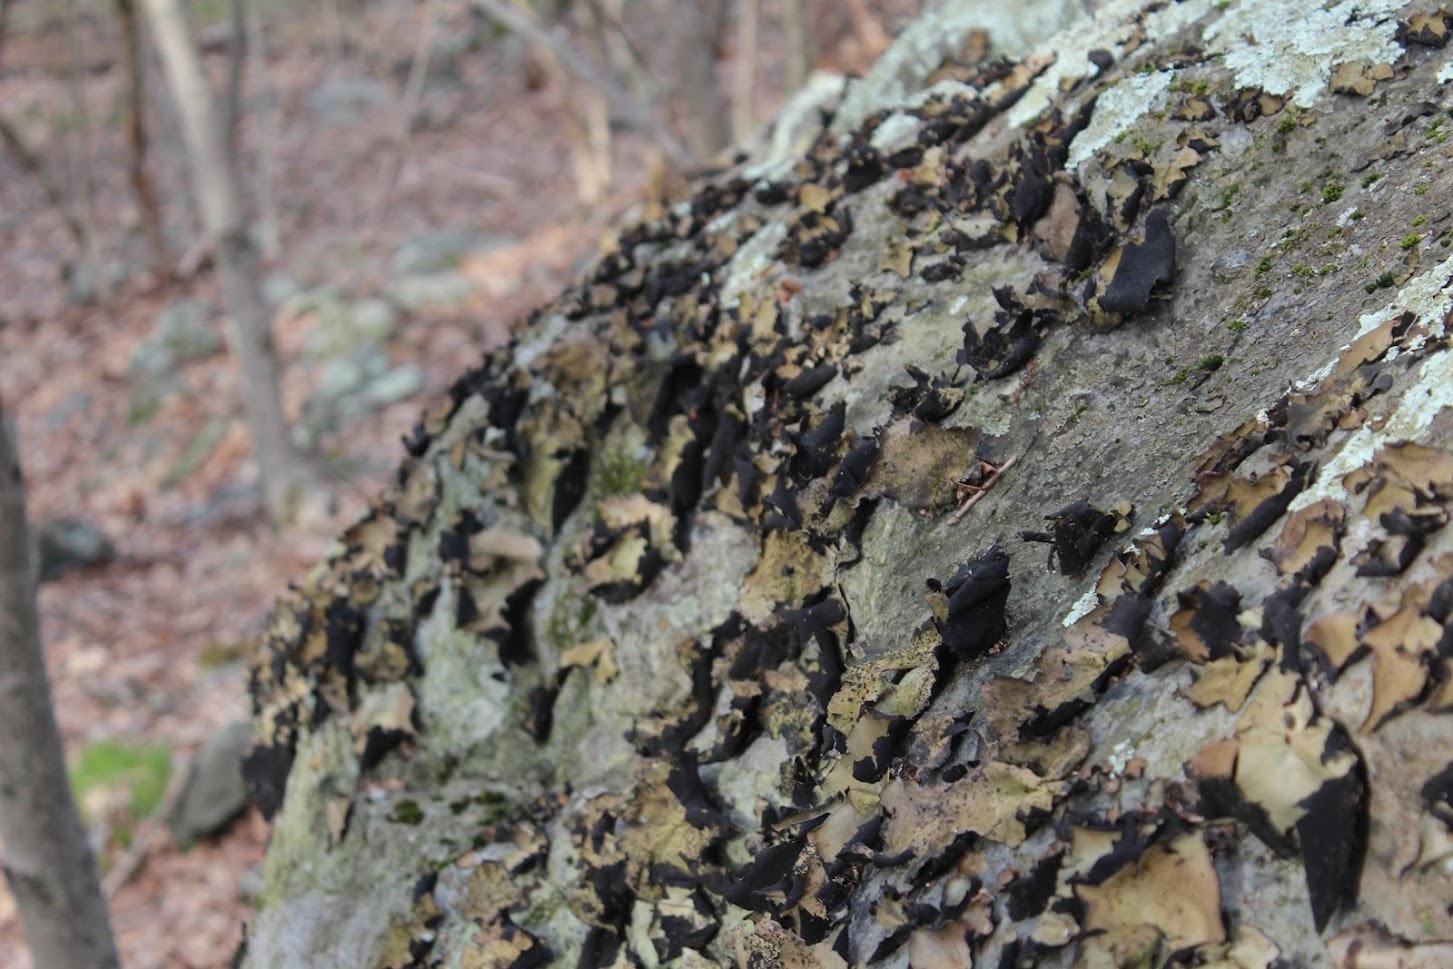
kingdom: Fungi
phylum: Ascomycota
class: Lecanoromycetes
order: Umbilicariales
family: Umbilicariaceae
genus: Umbilicaria
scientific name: Umbilicaria mammulata
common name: Smooth rock tripe
